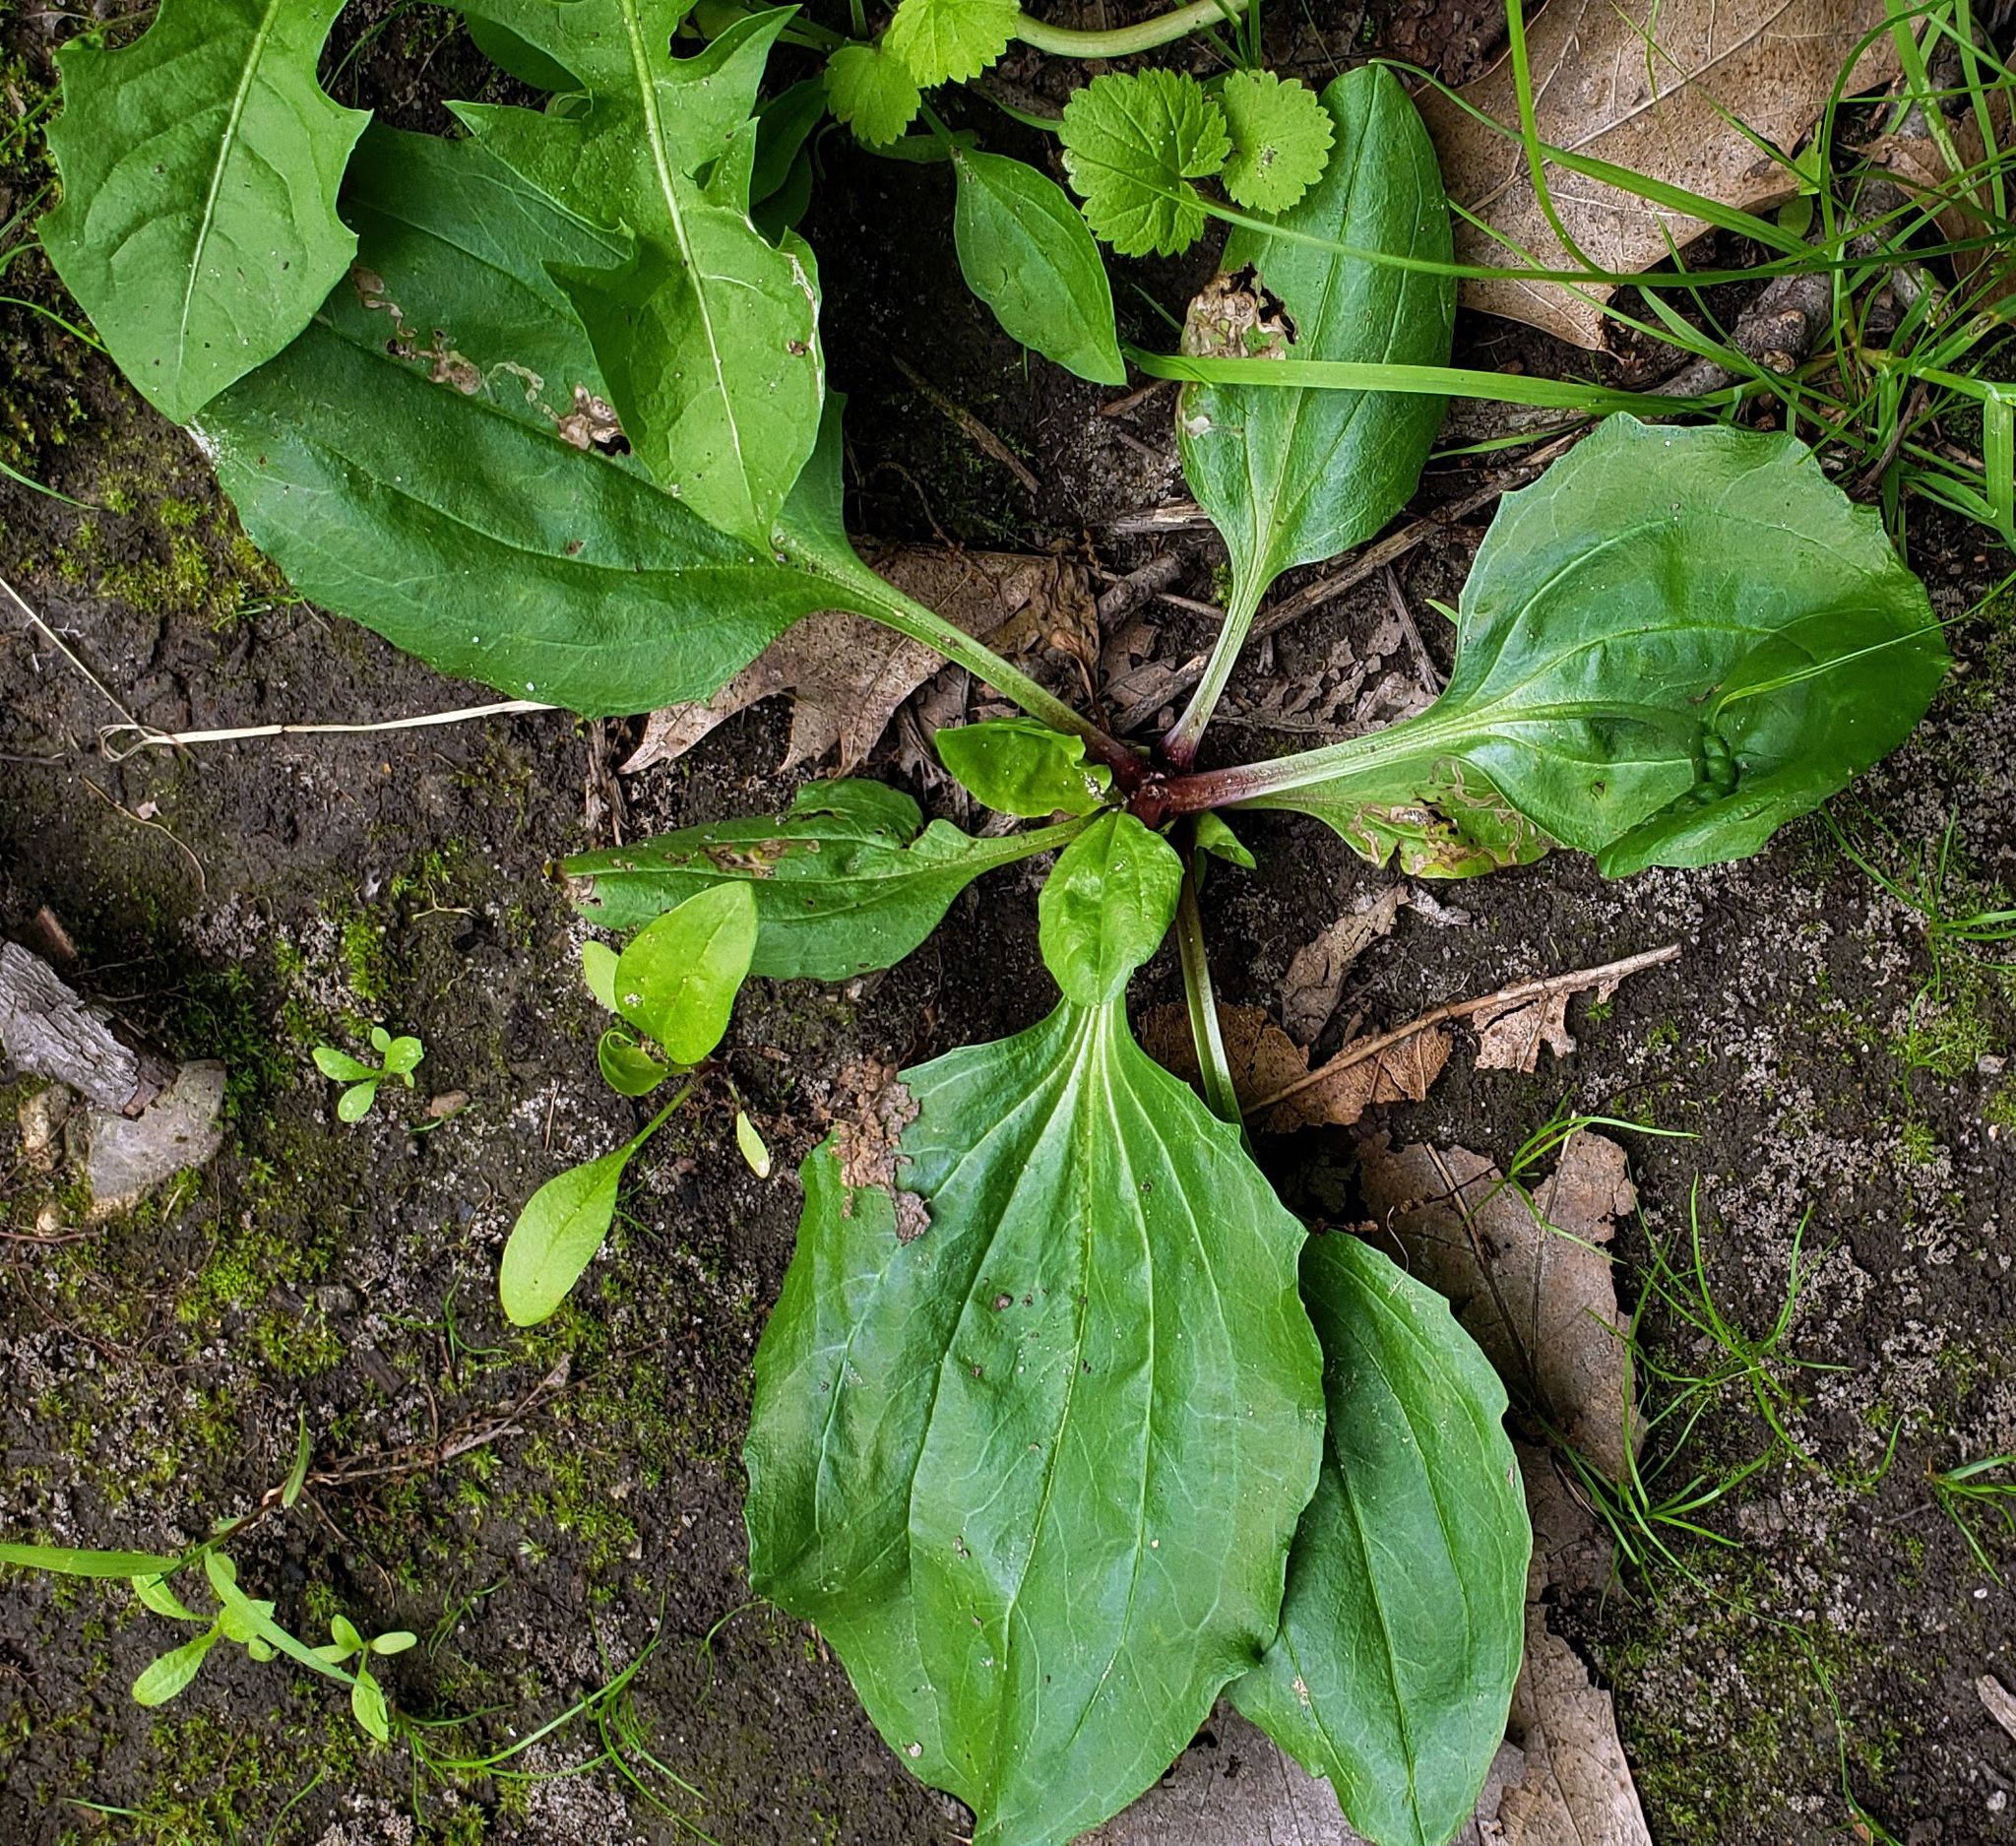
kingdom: Plantae
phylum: Tracheophyta
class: Magnoliopsida
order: Lamiales
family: Plantaginaceae
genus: Plantago
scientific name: Plantago rugelii
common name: American plantain
